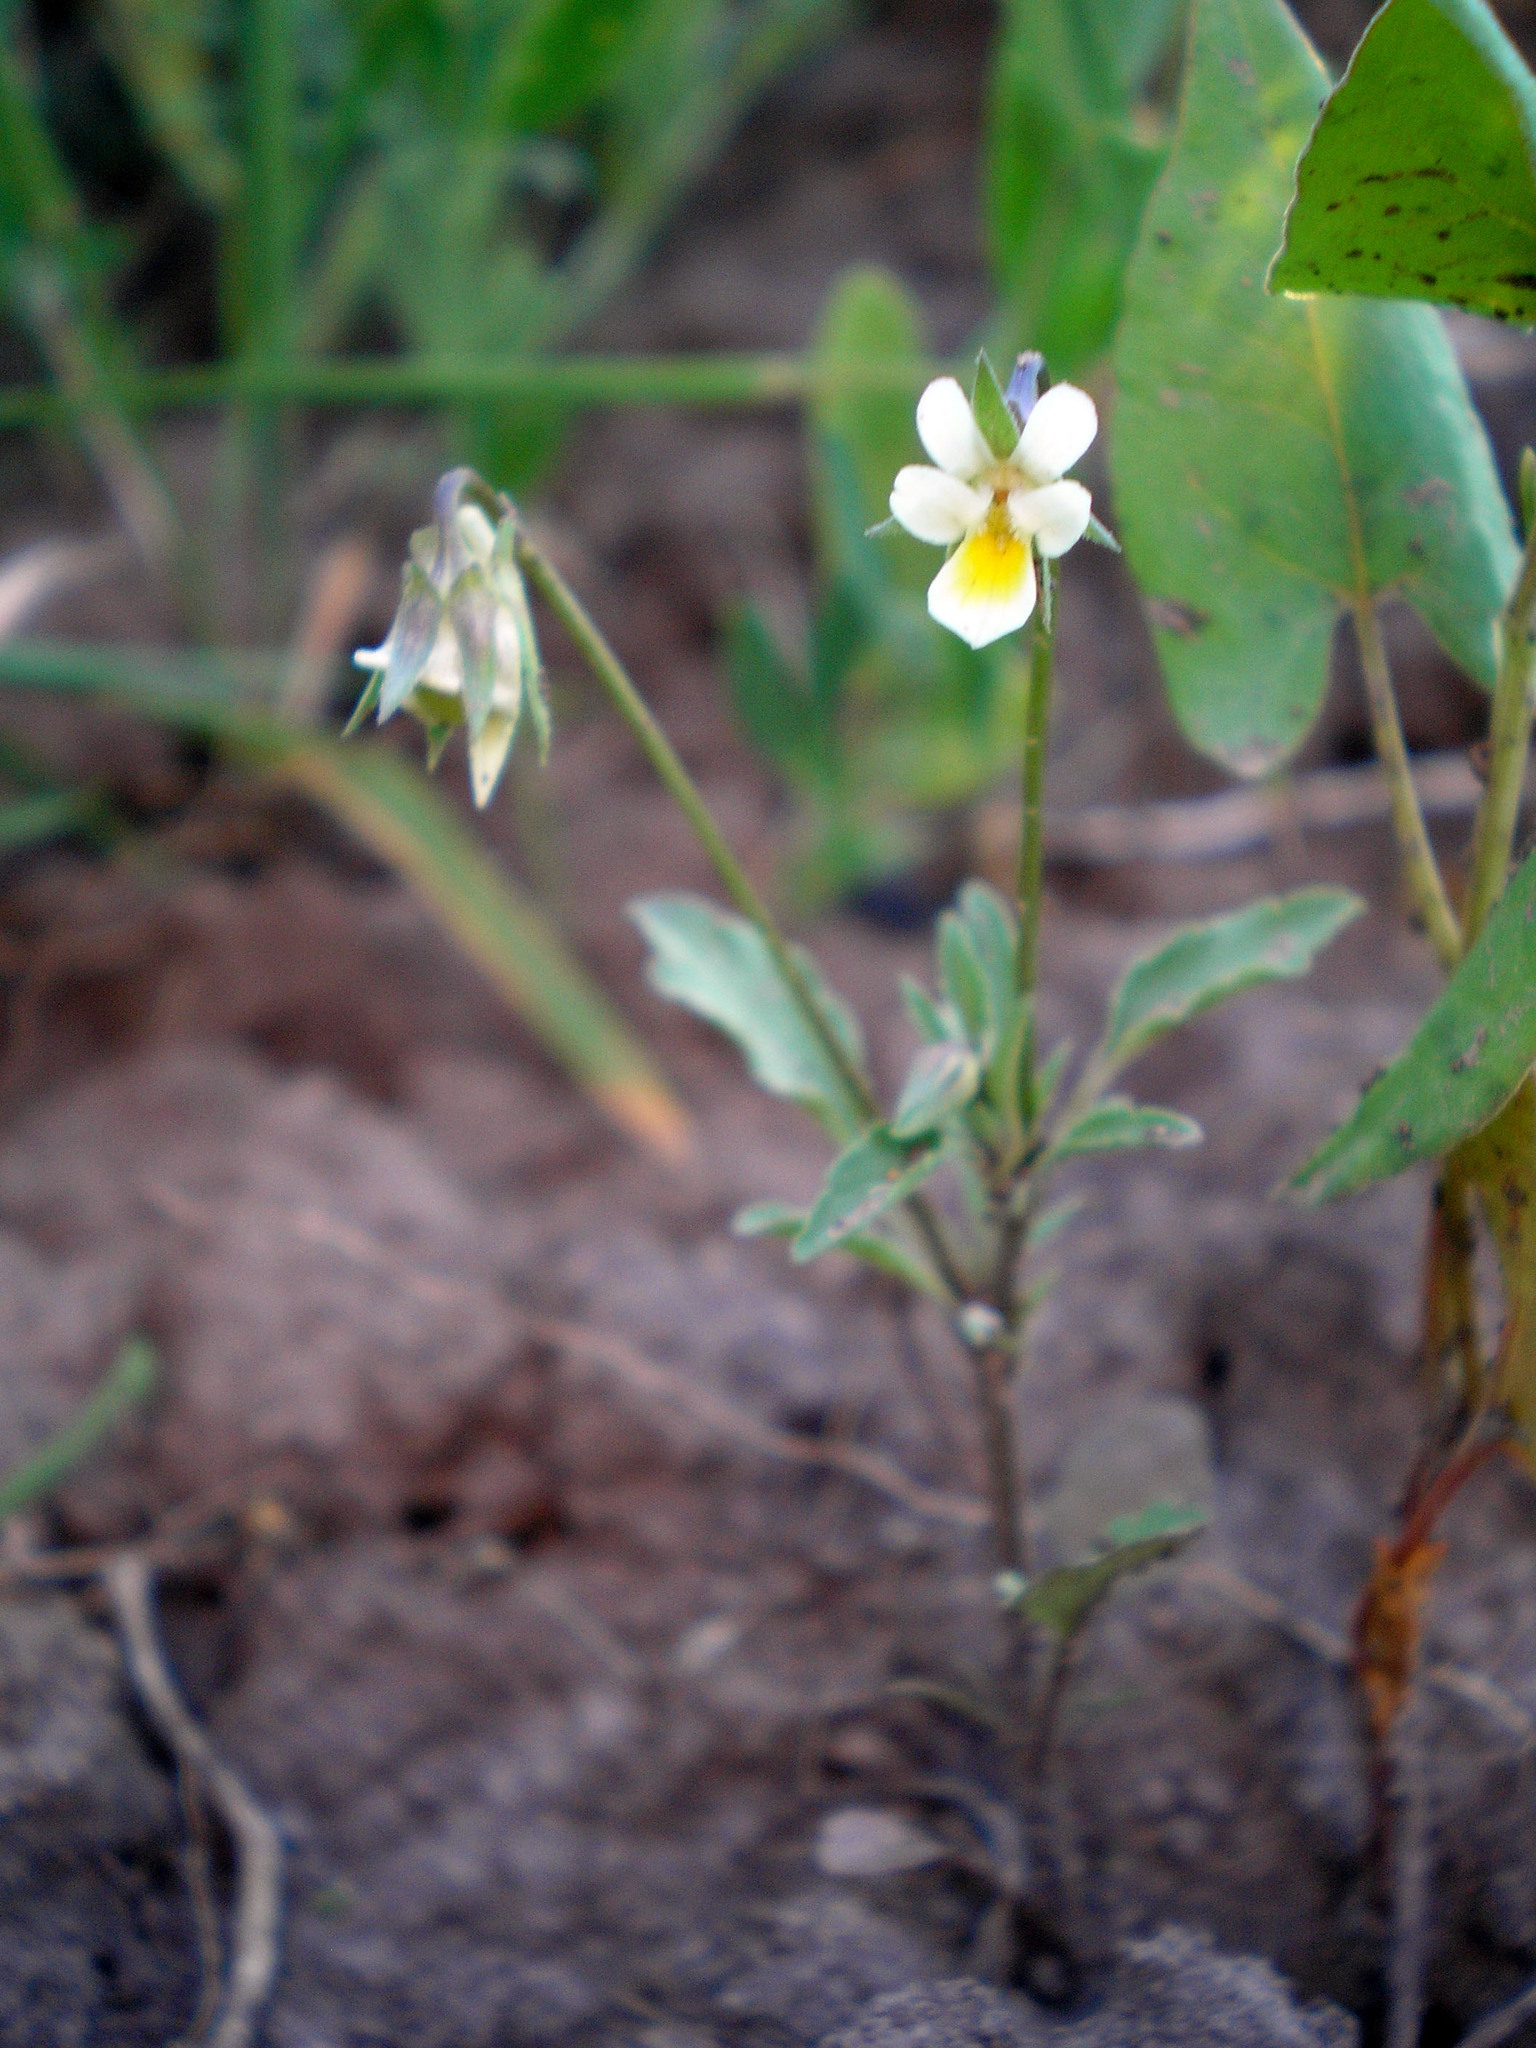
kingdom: Plantae
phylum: Tracheophyta
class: Magnoliopsida
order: Malpighiales
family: Violaceae
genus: Viola
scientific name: Viola arvensis
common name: Field pansy
